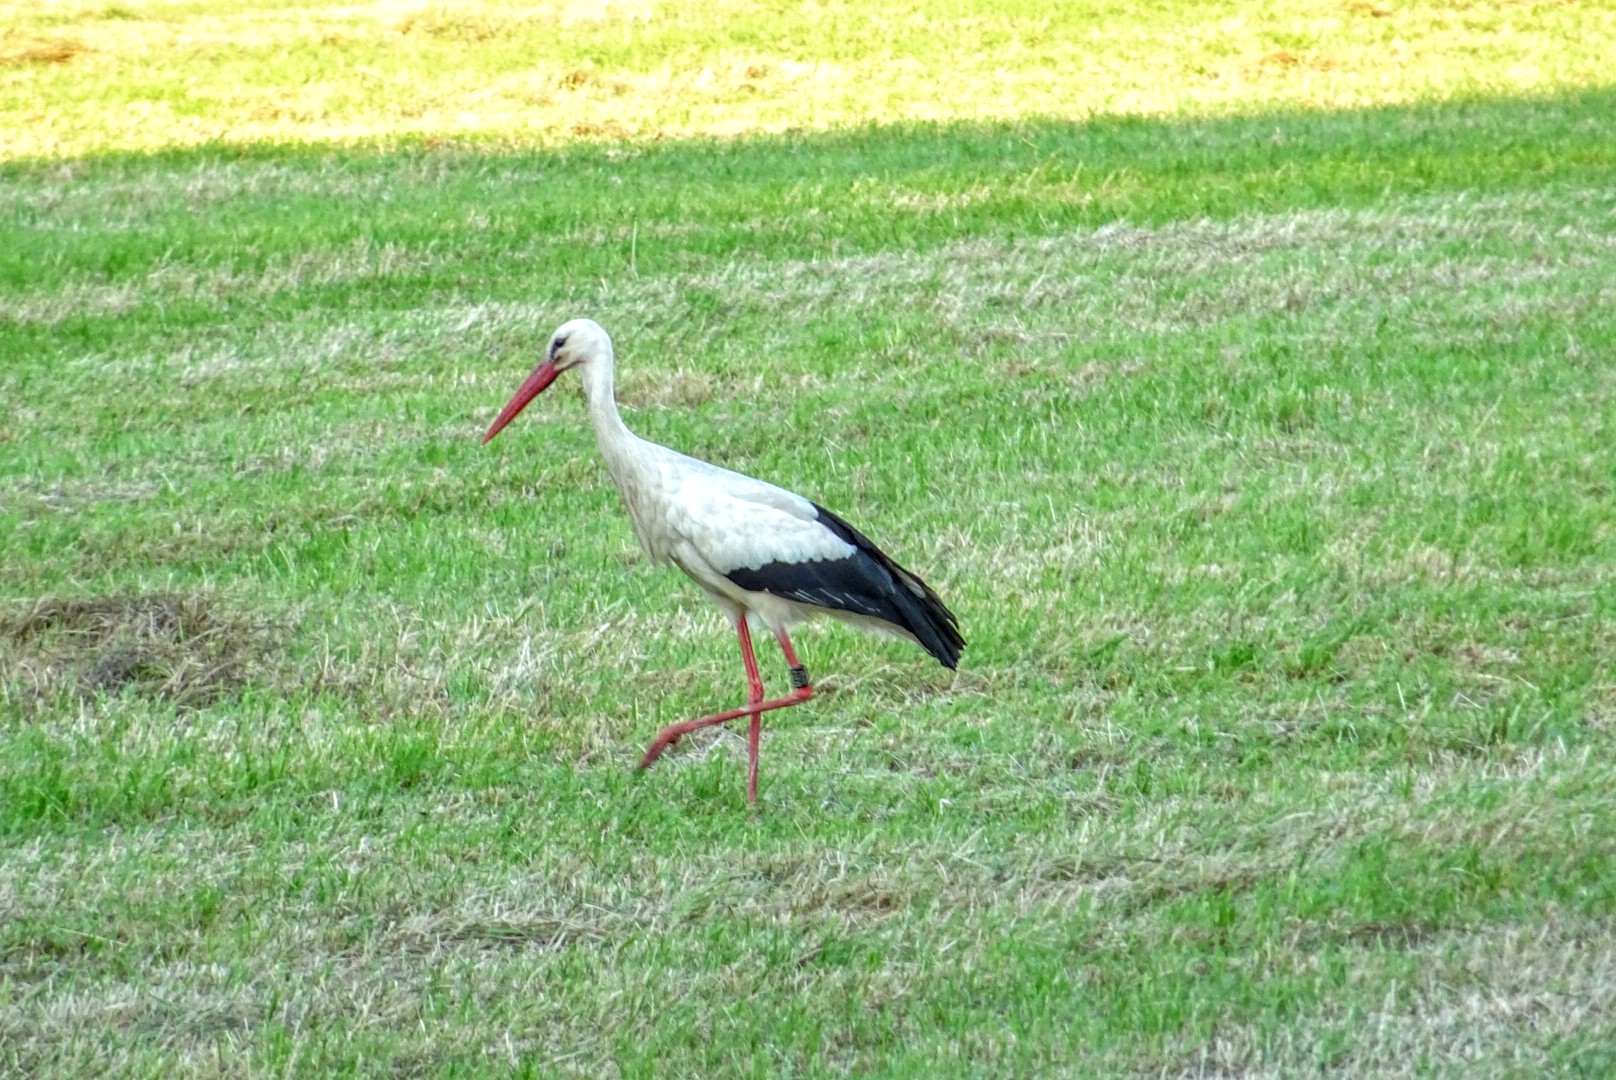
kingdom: Animalia
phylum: Chordata
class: Aves
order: Ciconiiformes
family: Ciconiidae
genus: Ciconia
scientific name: Ciconia ciconia
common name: White stork
